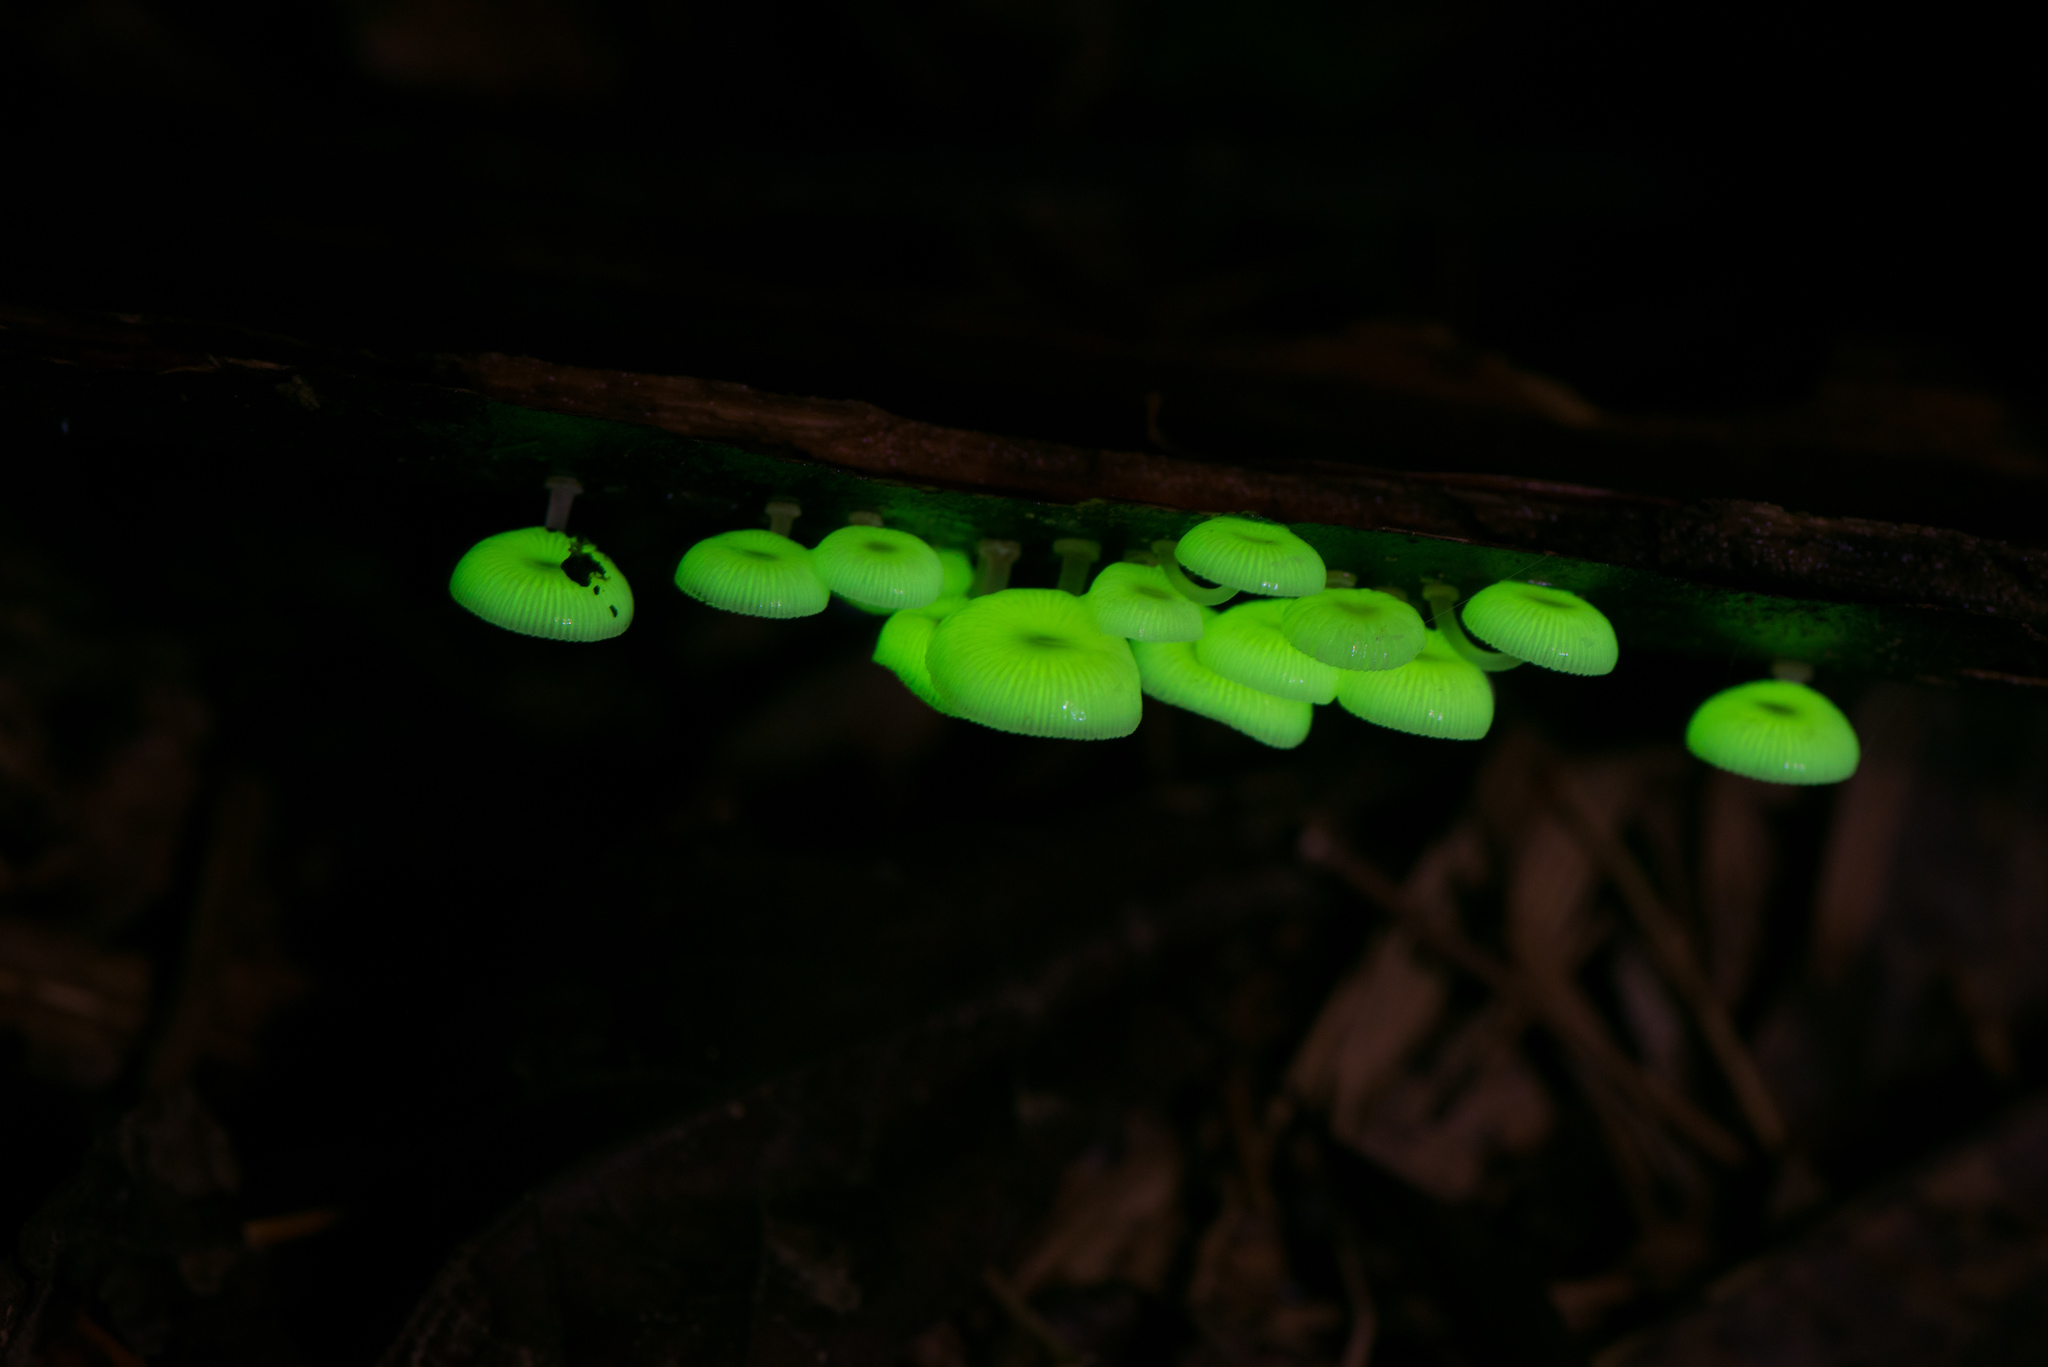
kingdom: Fungi
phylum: Basidiomycota
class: Agaricomycetes
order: Agaricales
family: Mycenaceae
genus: Mycena
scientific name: Mycena chlorophos
